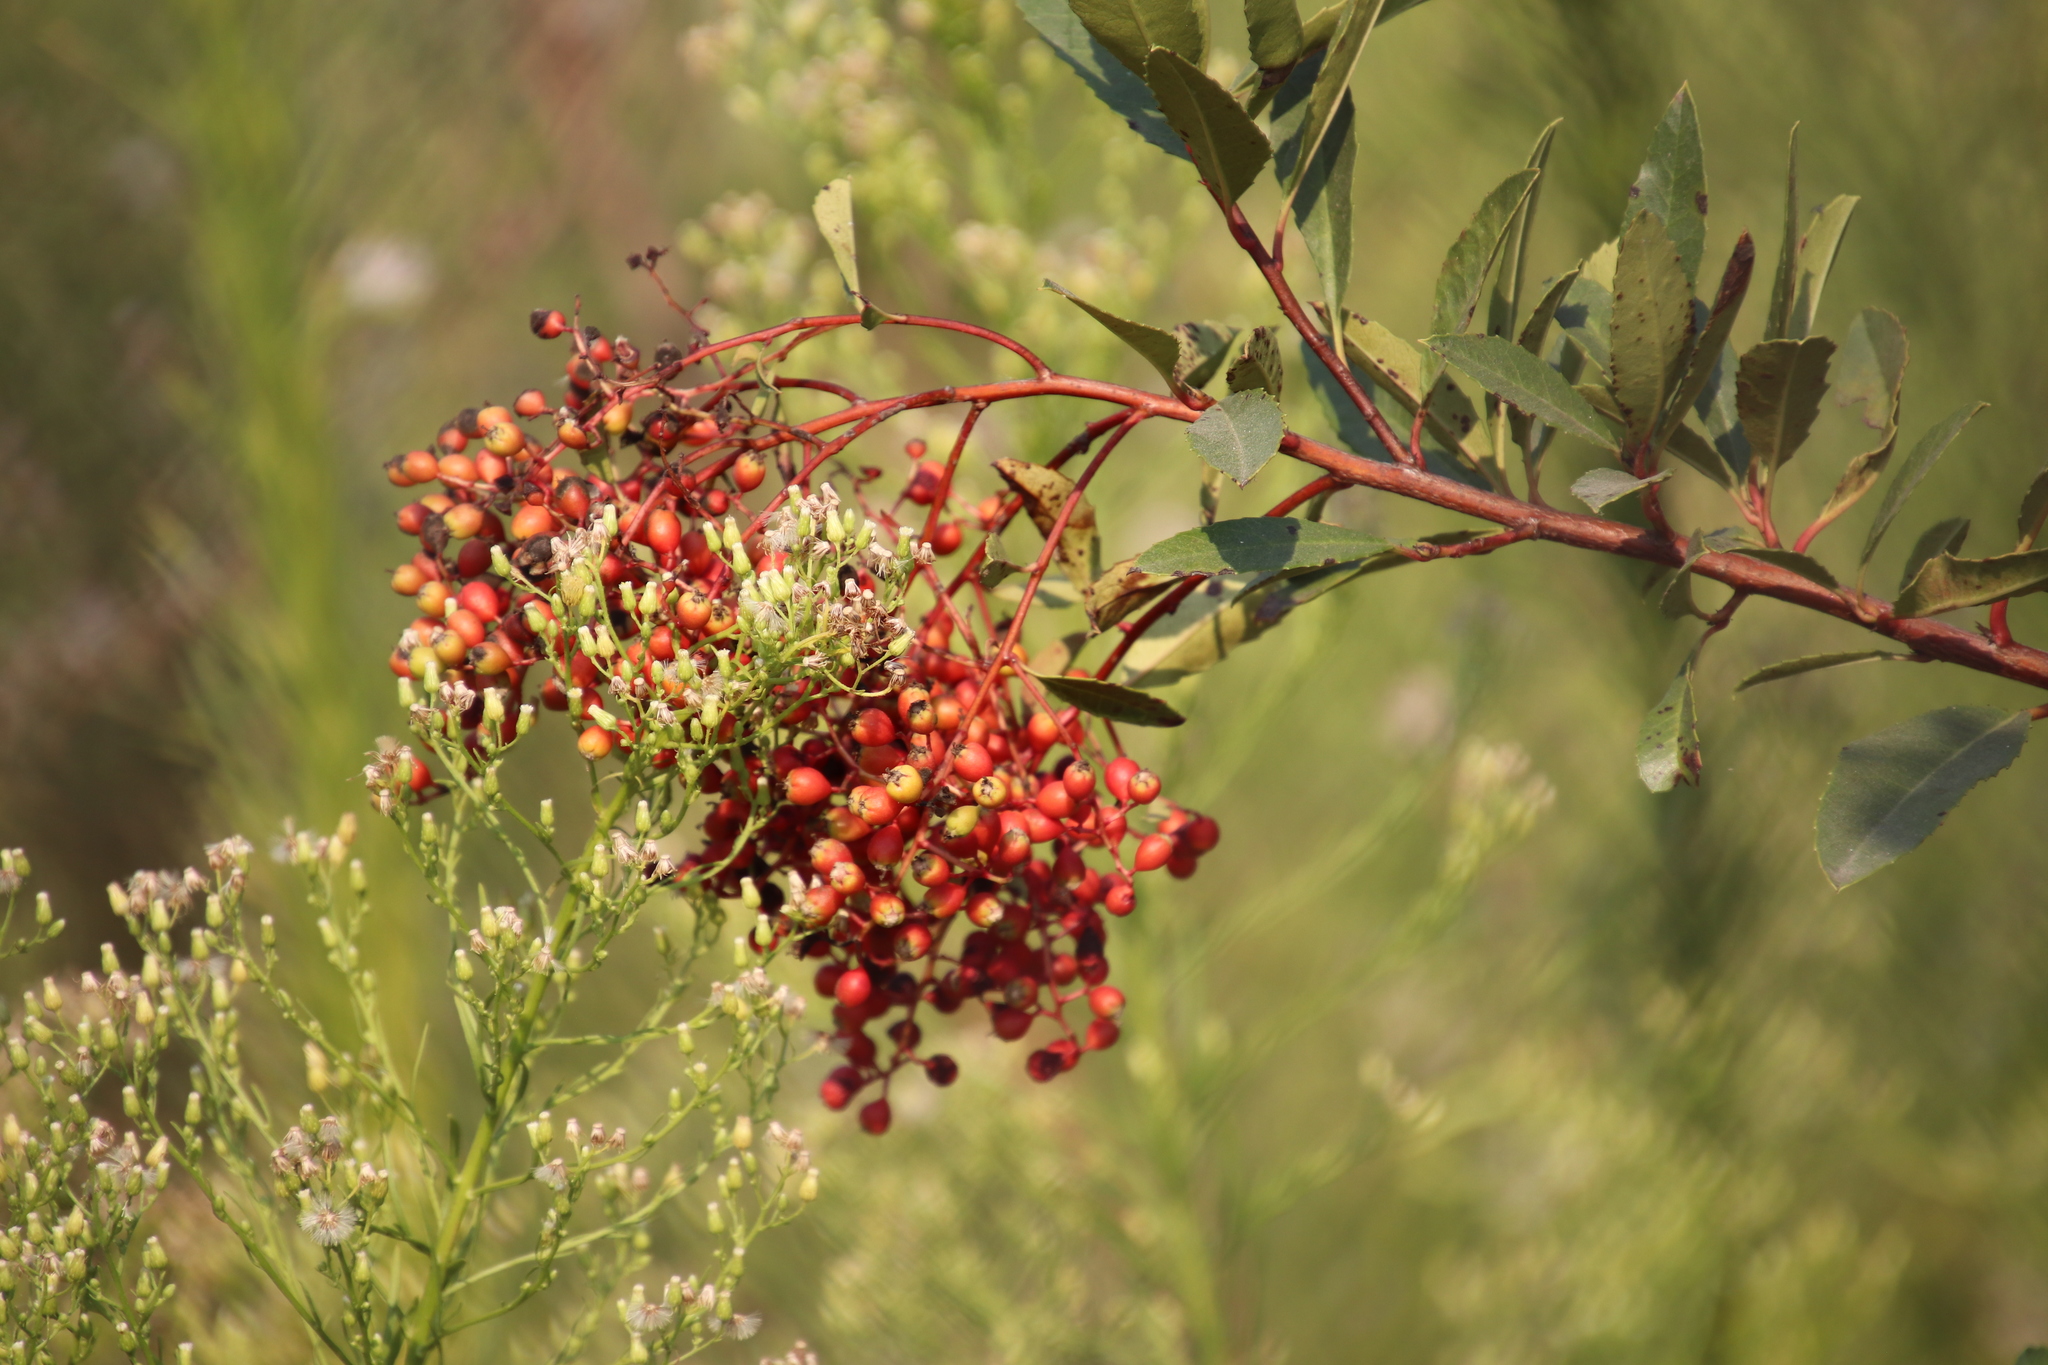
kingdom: Plantae
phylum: Tracheophyta
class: Magnoliopsida
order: Rosales
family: Rosaceae
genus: Heteromeles
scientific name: Heteromeles arbutifolia
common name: California-holly
